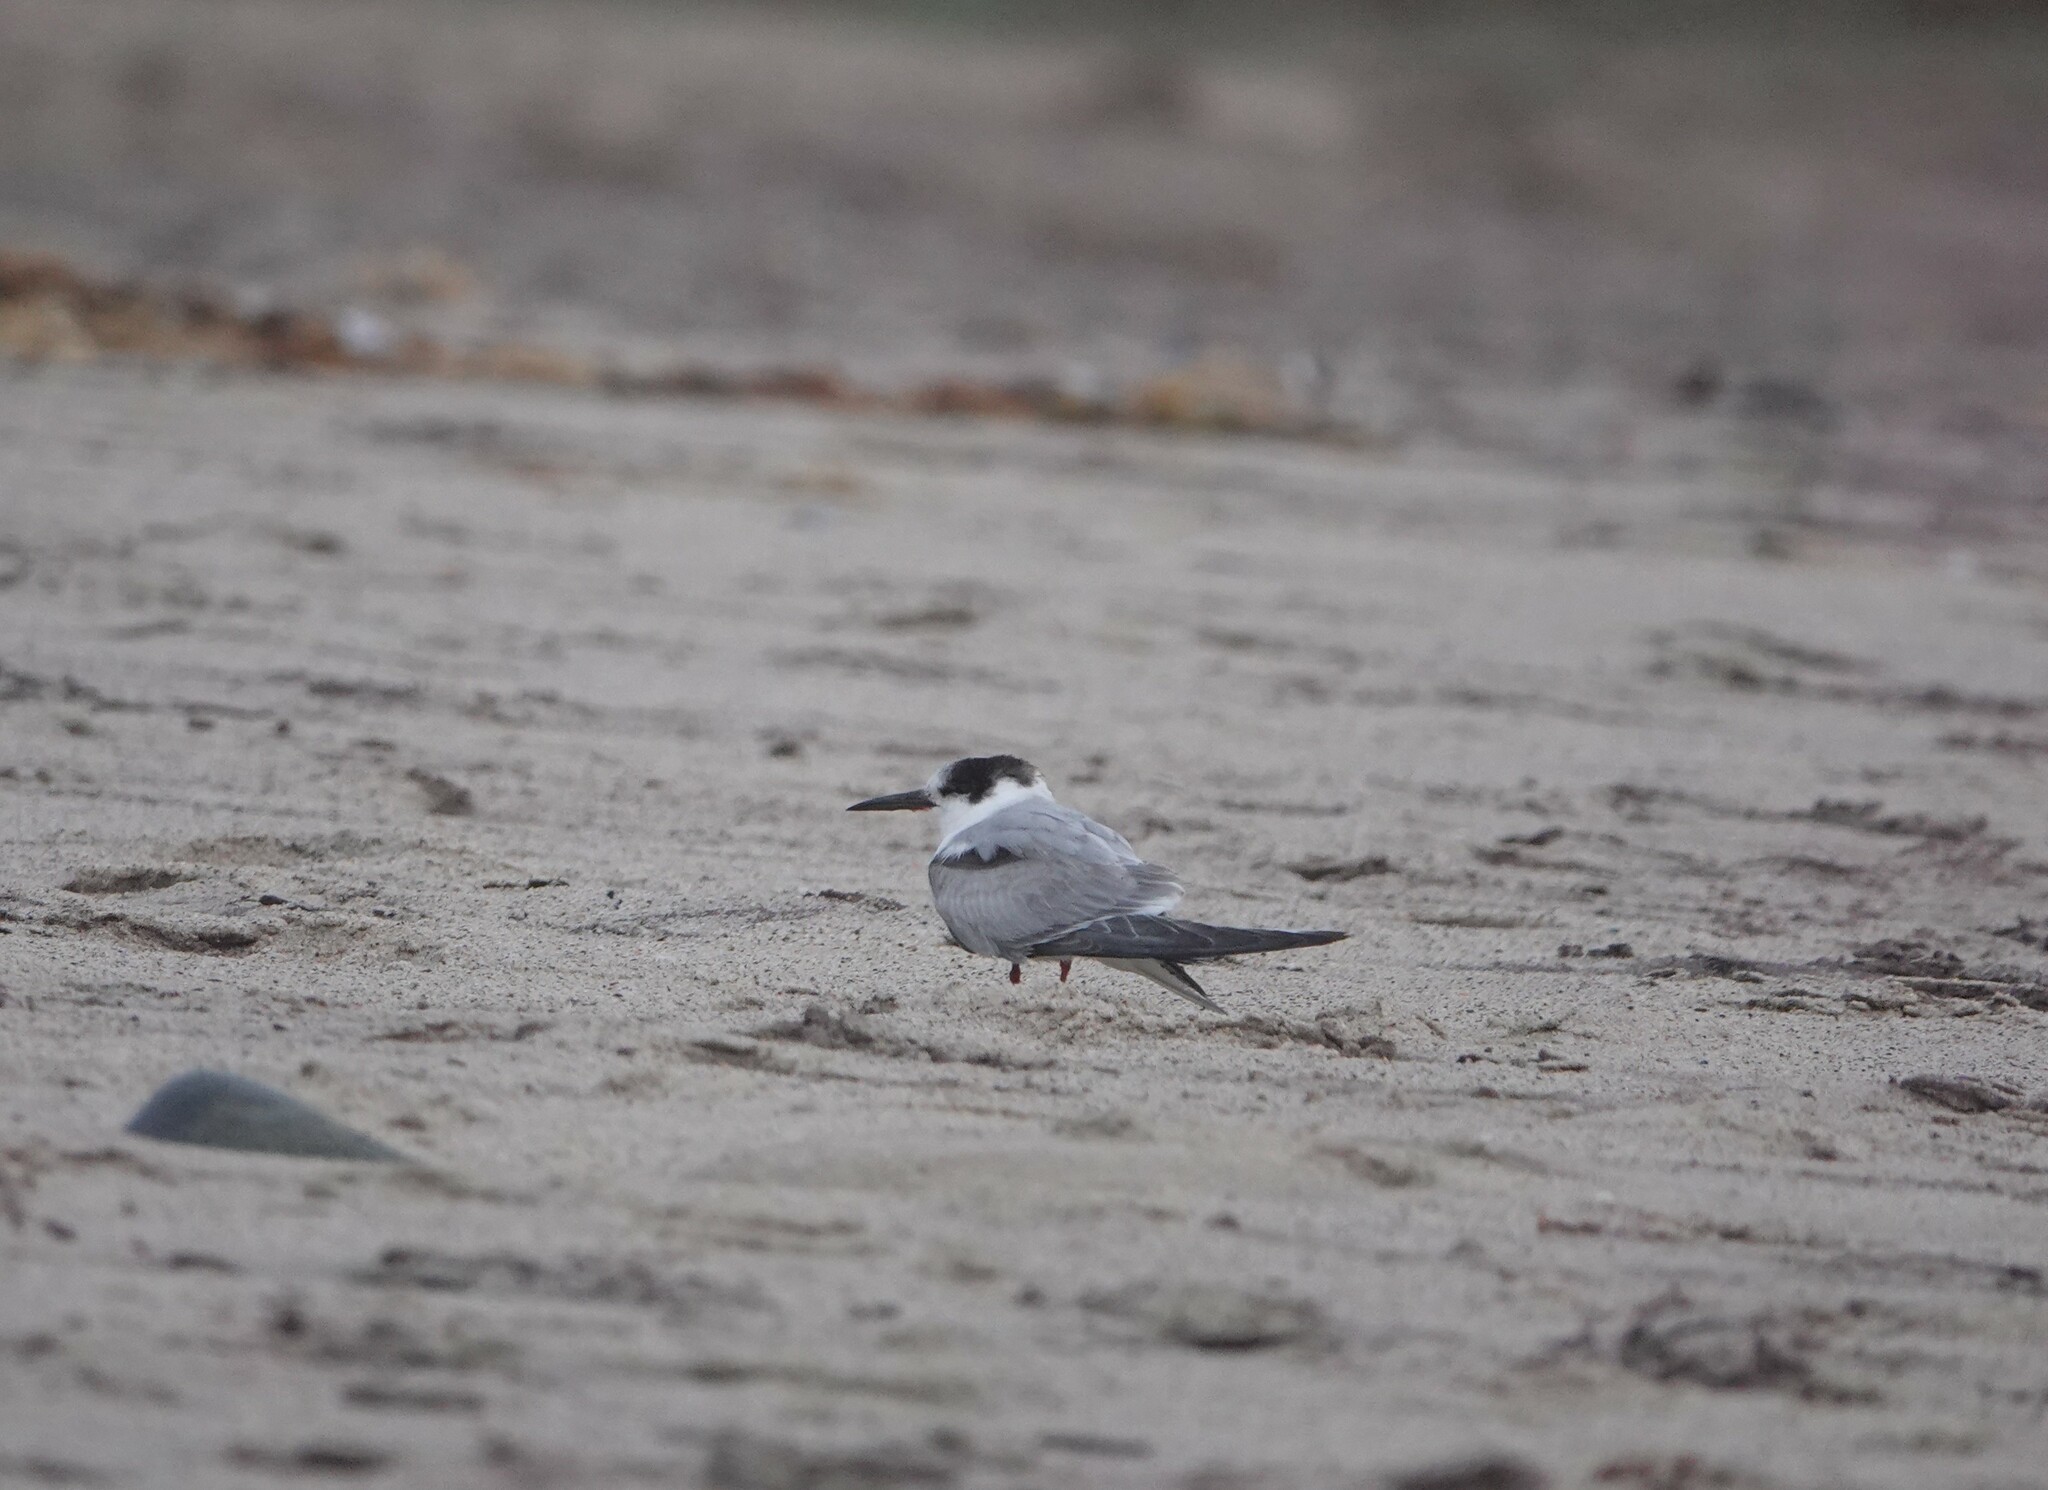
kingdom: Animalia
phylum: Chordata
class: Aves
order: Charadriiformes
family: Laridae
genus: Sterna
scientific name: Sterna hirundo
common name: Common tern
